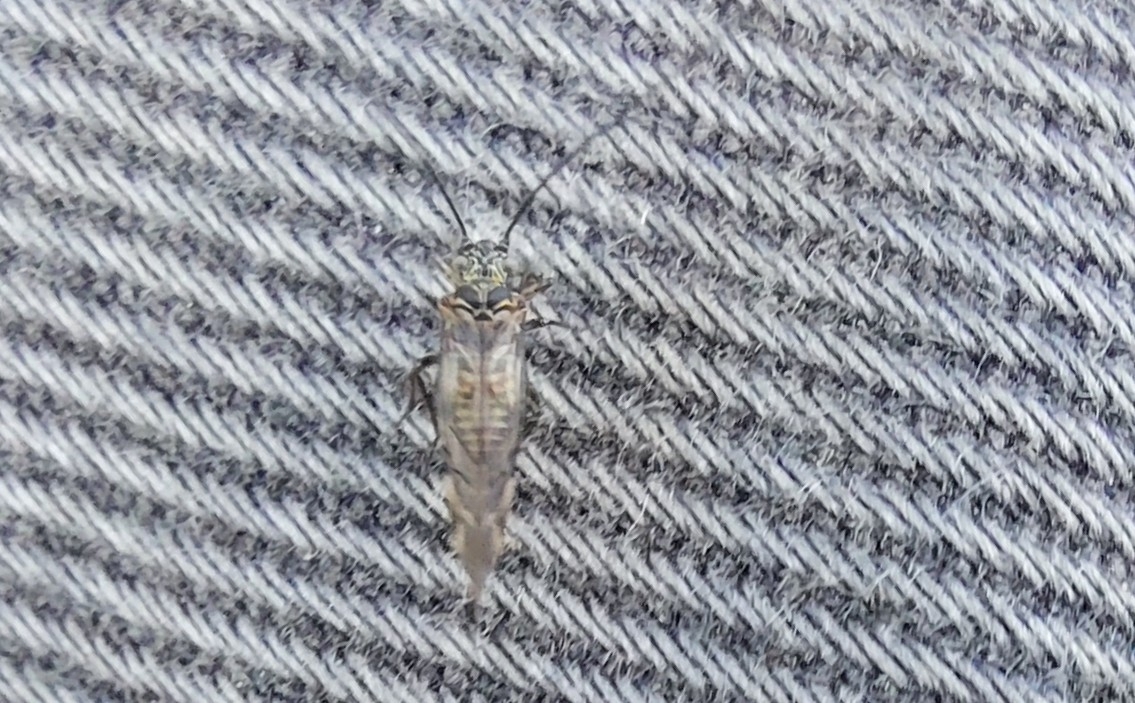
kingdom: Animalia
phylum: Arthropoda
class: Insecta
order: Psocodea
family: Psocidae
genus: Psococerastis
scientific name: Psococerastis gibbosa
